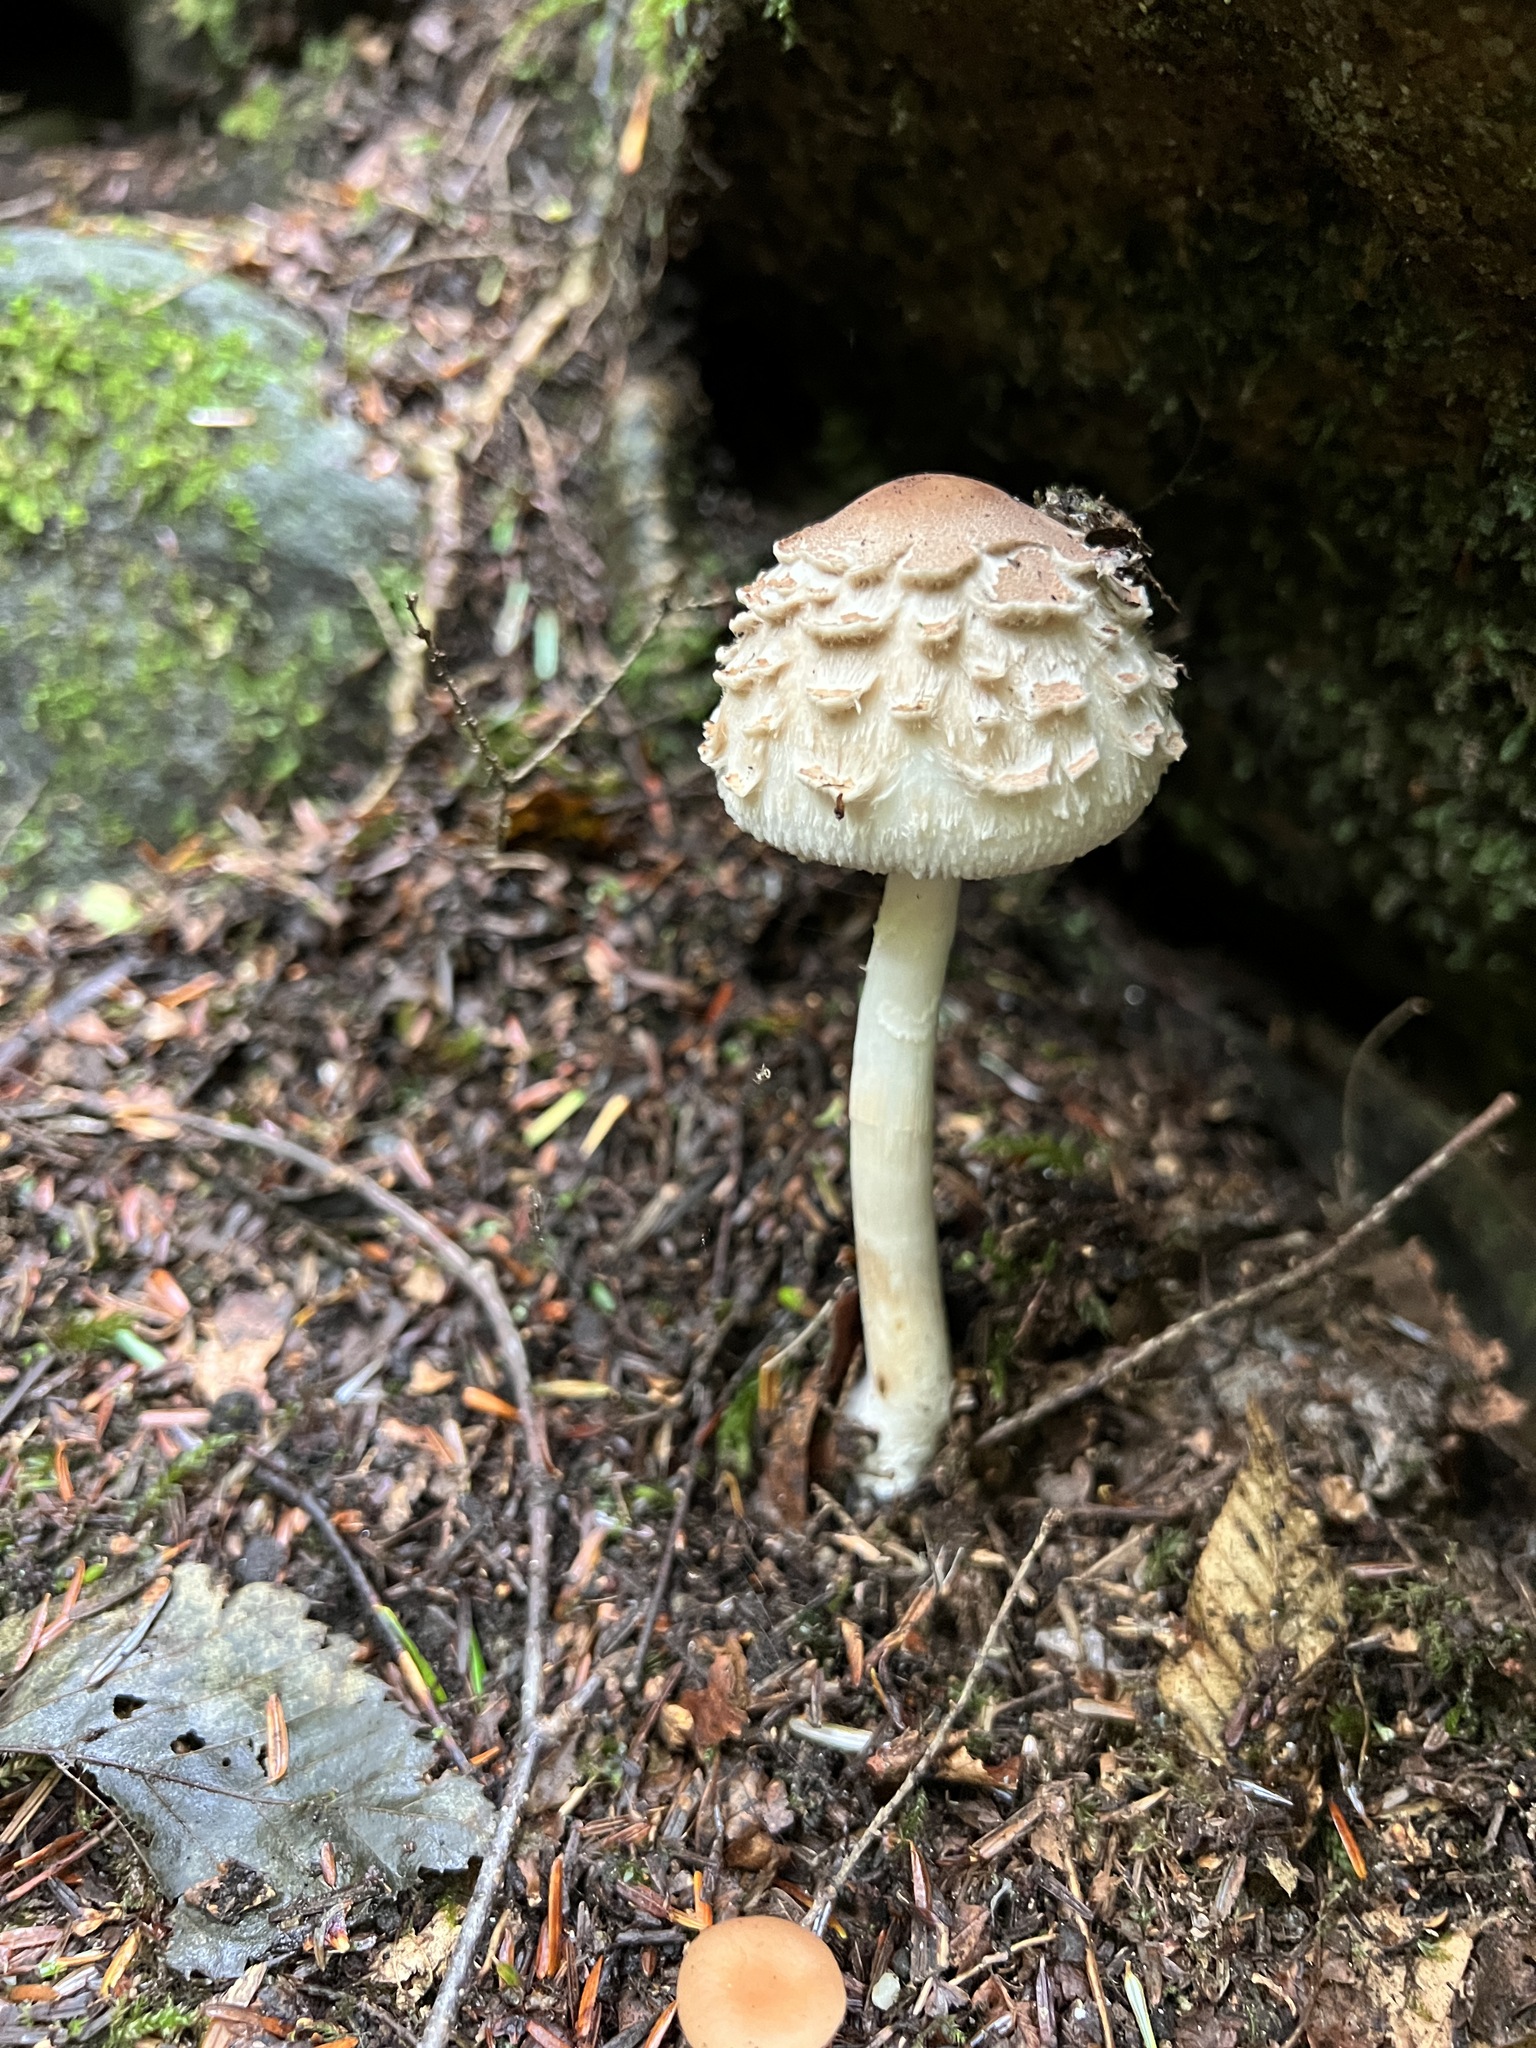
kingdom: Fungi
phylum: Basidiomycota
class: Agaricomycetes
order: Agaricales
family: Agaricaceae
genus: Chlorophyllum
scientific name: Chlorophyllum rhacodes
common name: Shaggy parasol
